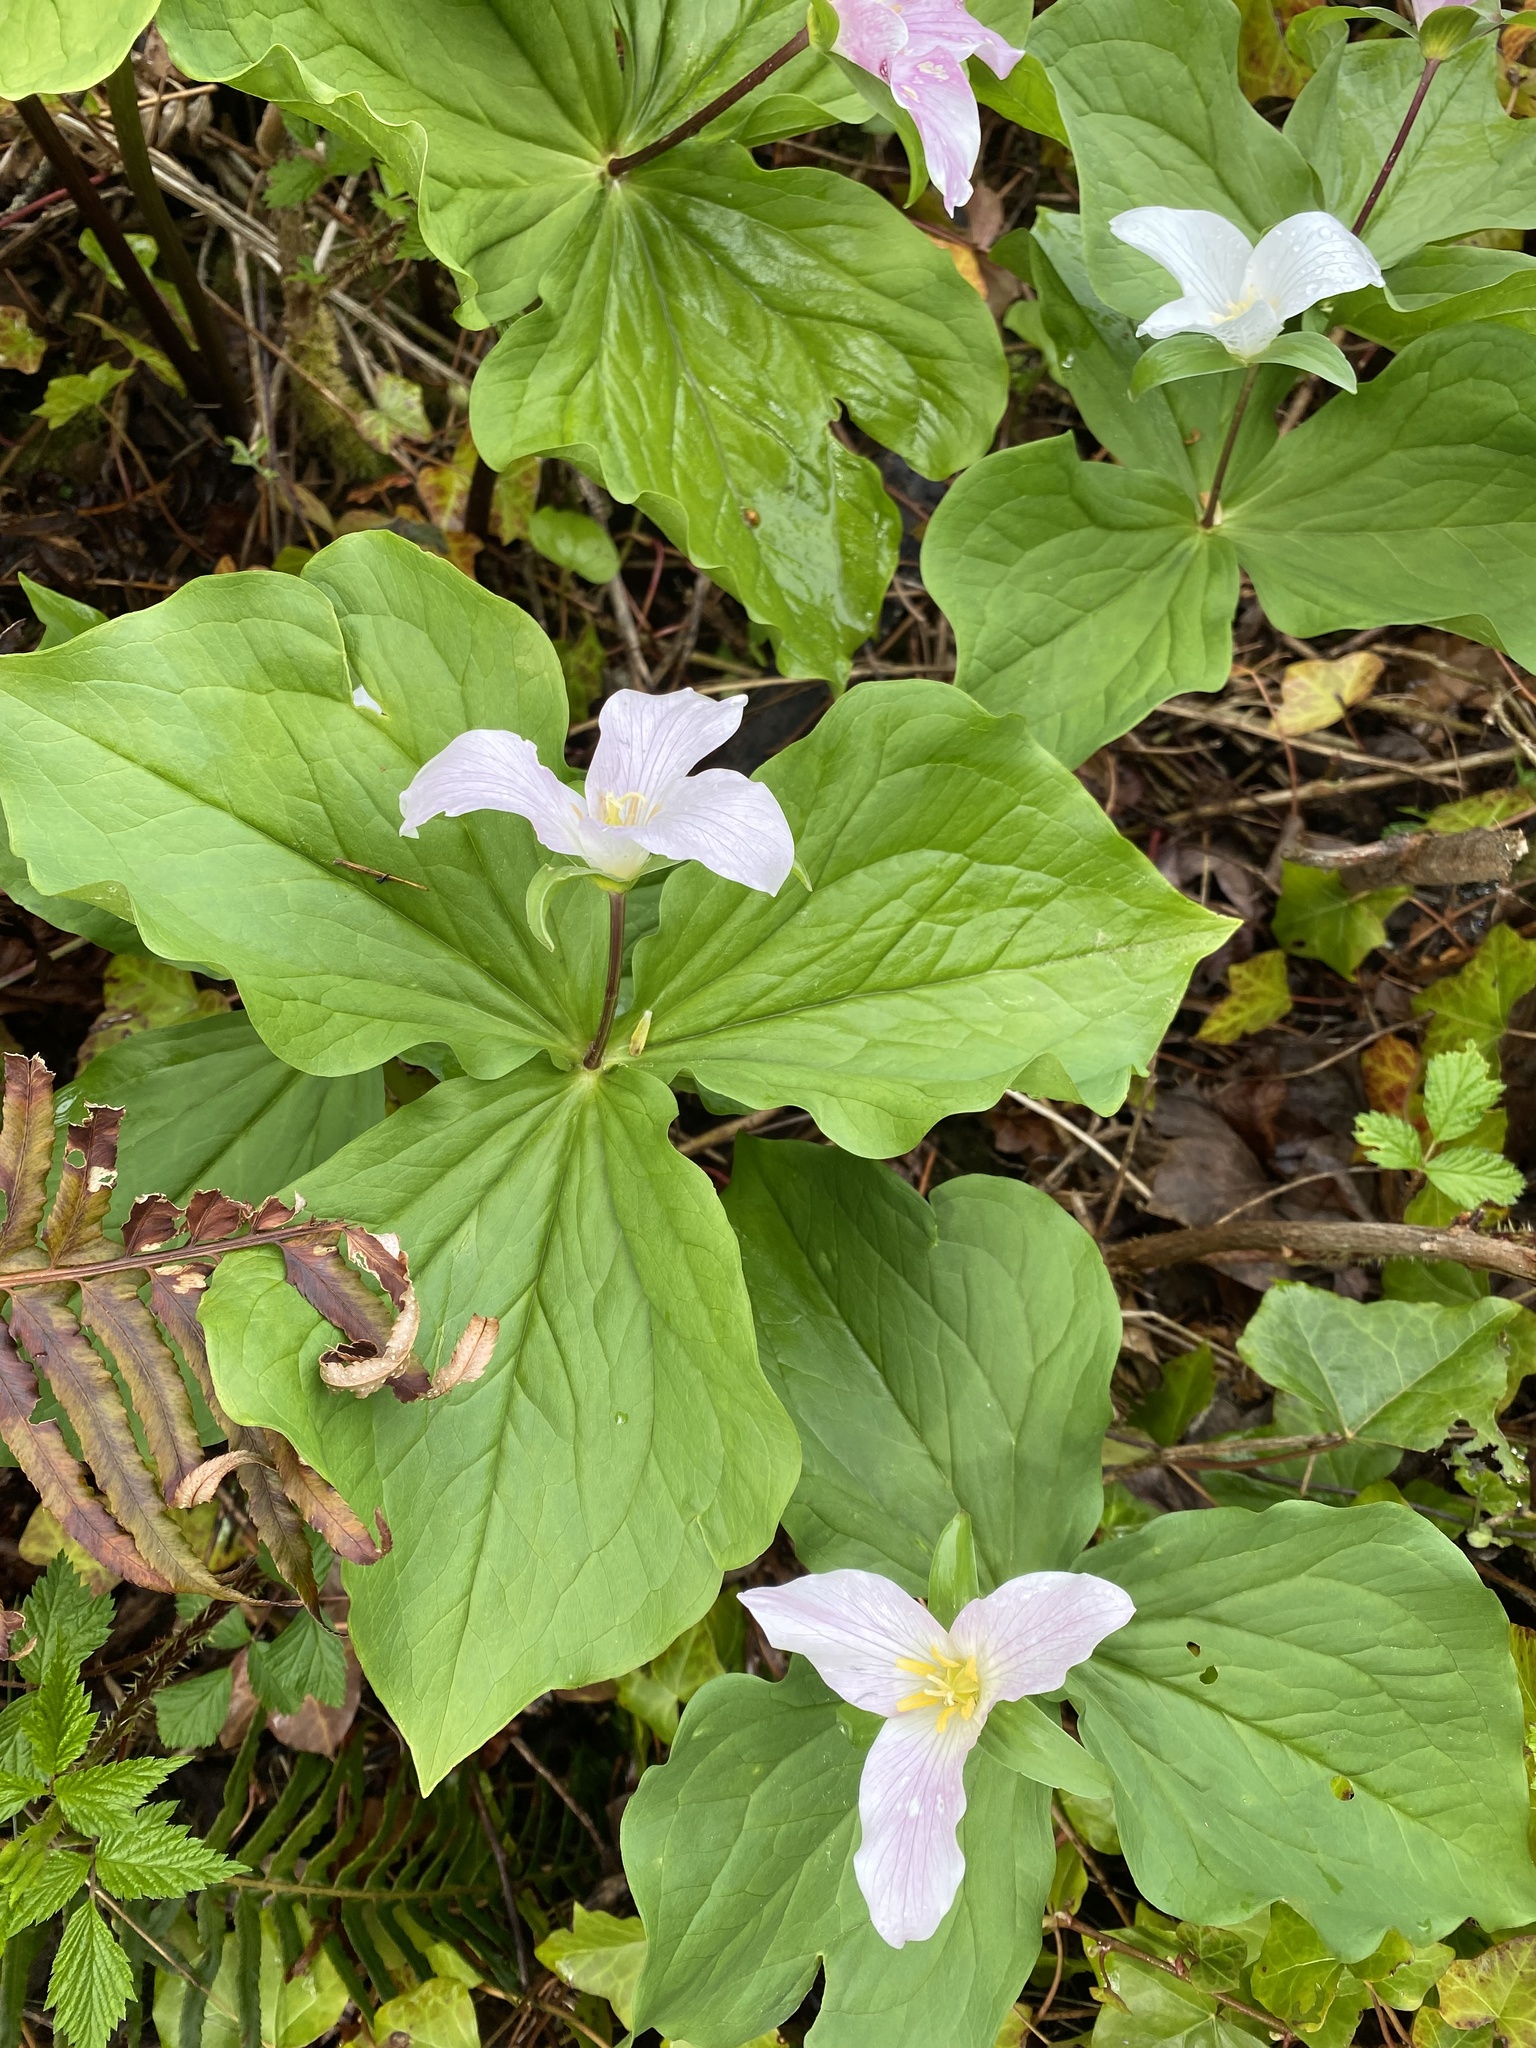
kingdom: Plantae
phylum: Tracheophyta
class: Liliopsida
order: Liliales
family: Melanthiaceae
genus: Trillium
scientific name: Trillium ovatum
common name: Pacific trillium
